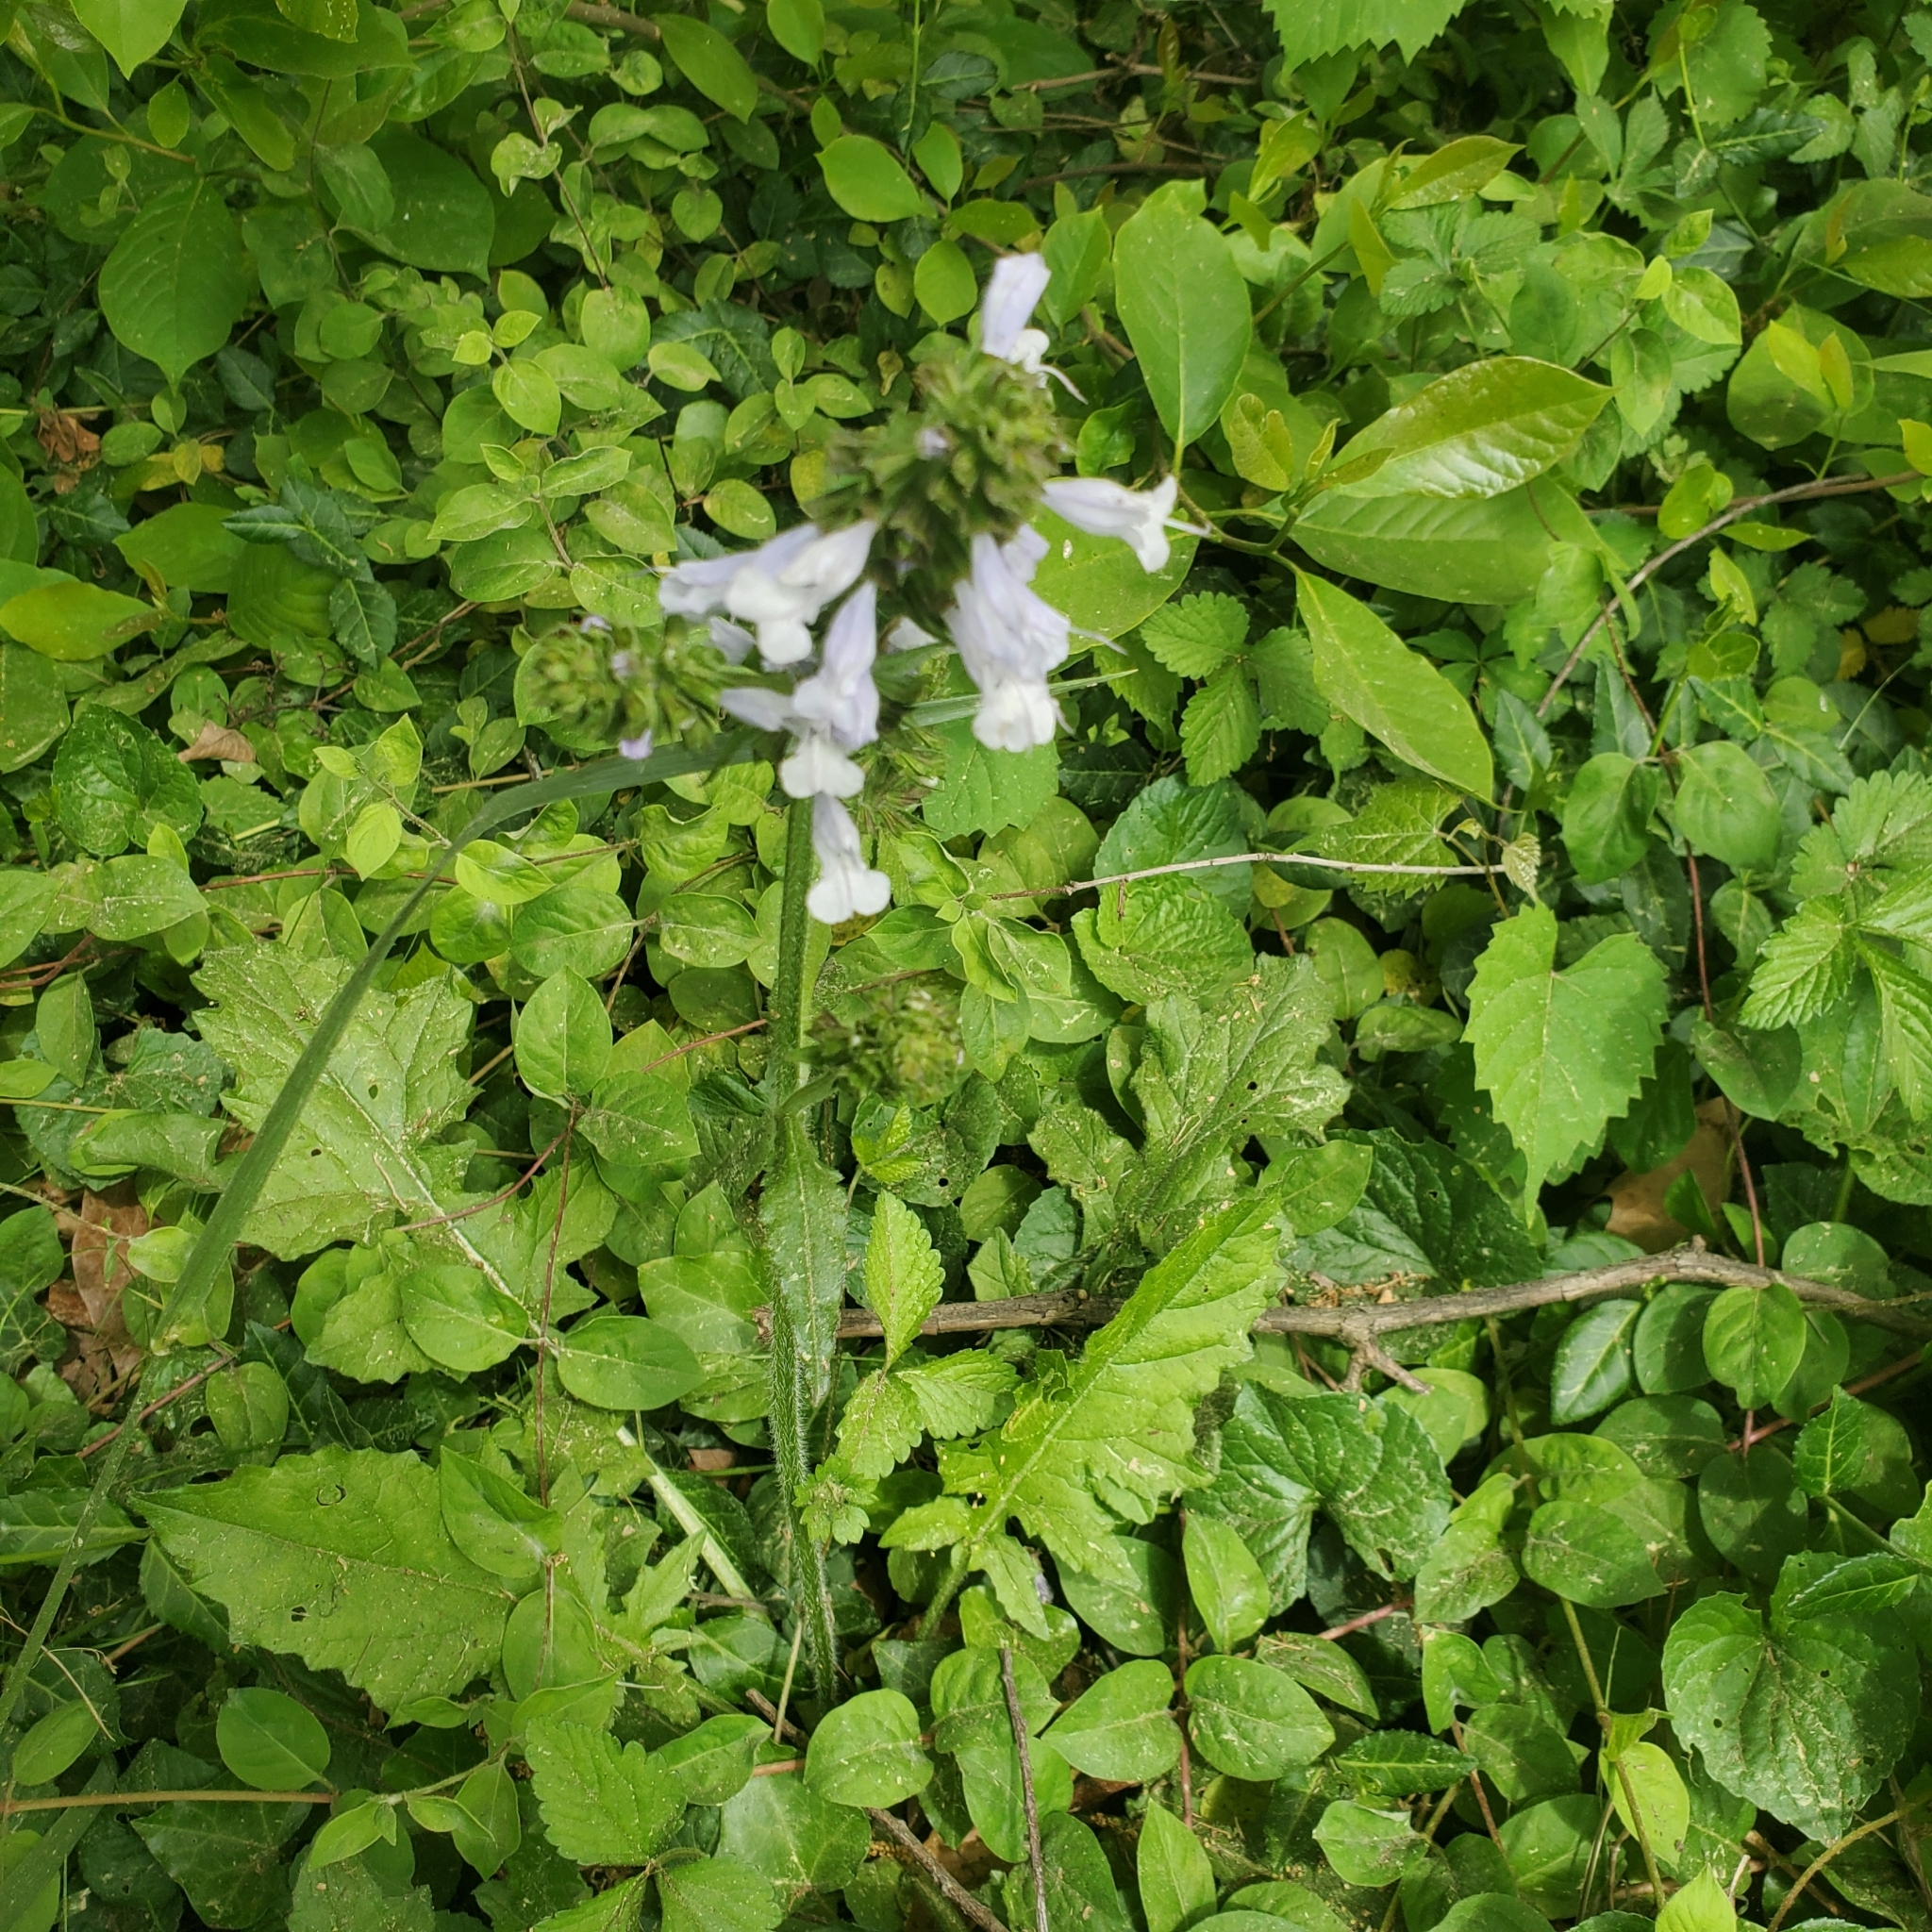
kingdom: Plantae
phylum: Tracheophyta
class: Magnoliopsida
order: Lamiales
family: Lamiaceae
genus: Salvia
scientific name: Salvia lyrata
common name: Cancerweed
